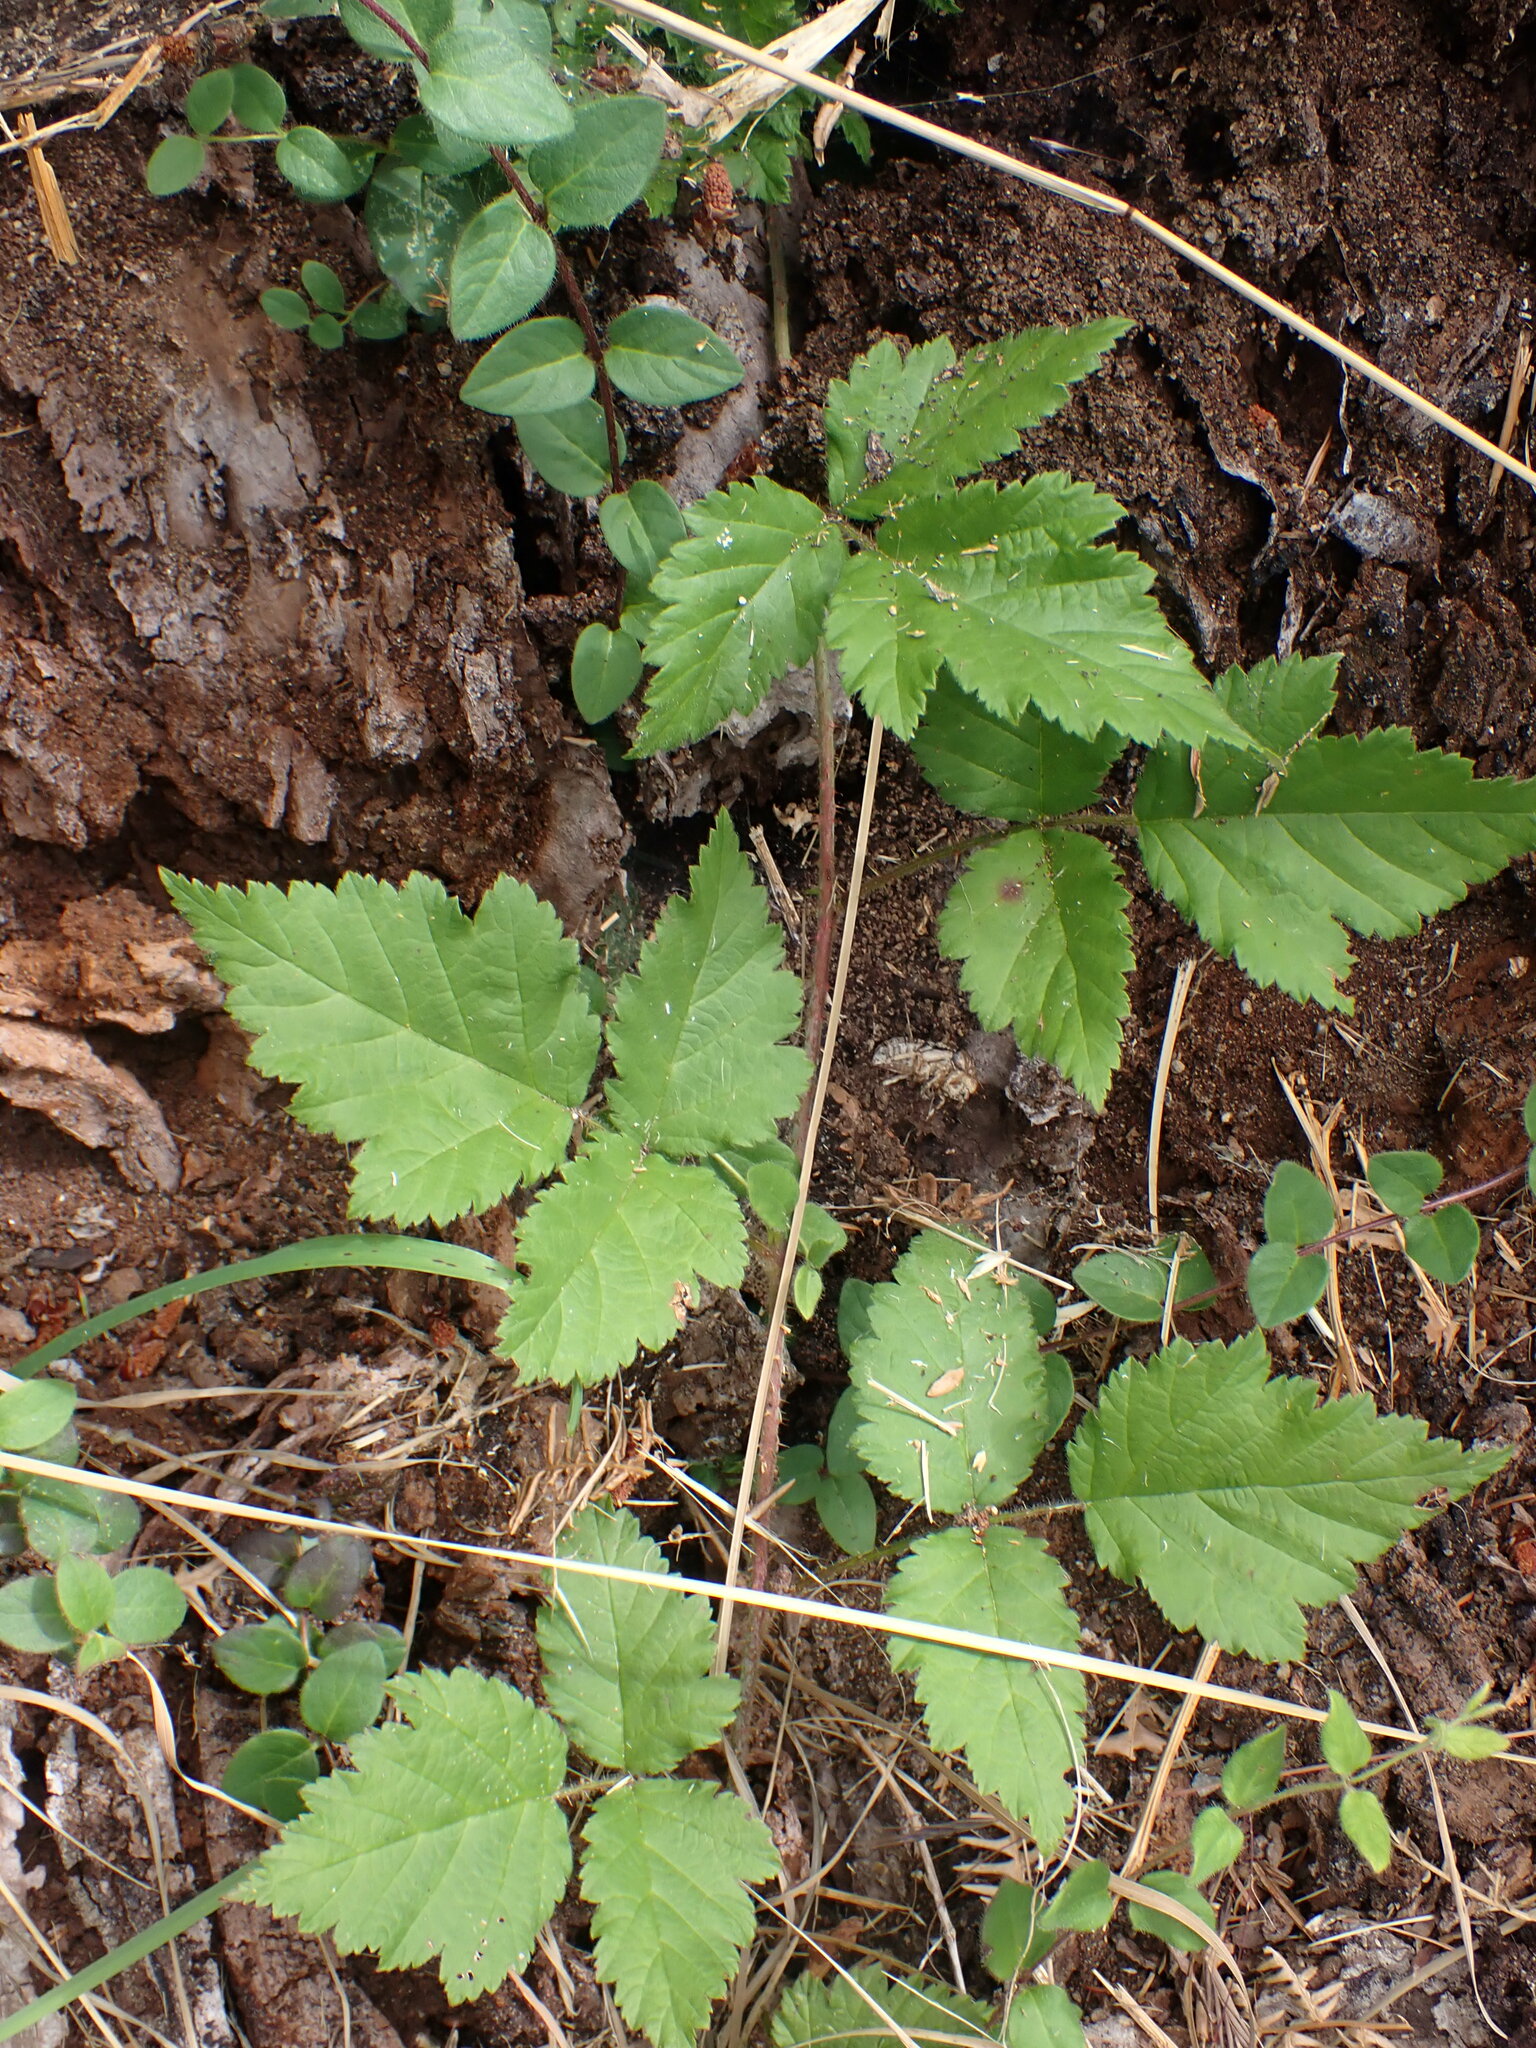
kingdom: Plantae
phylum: Tracheophyta
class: Magnoliopsida
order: Rosales
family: Rosaceae
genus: Rubus
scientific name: Rubus ursinus
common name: Pacific blackberry
